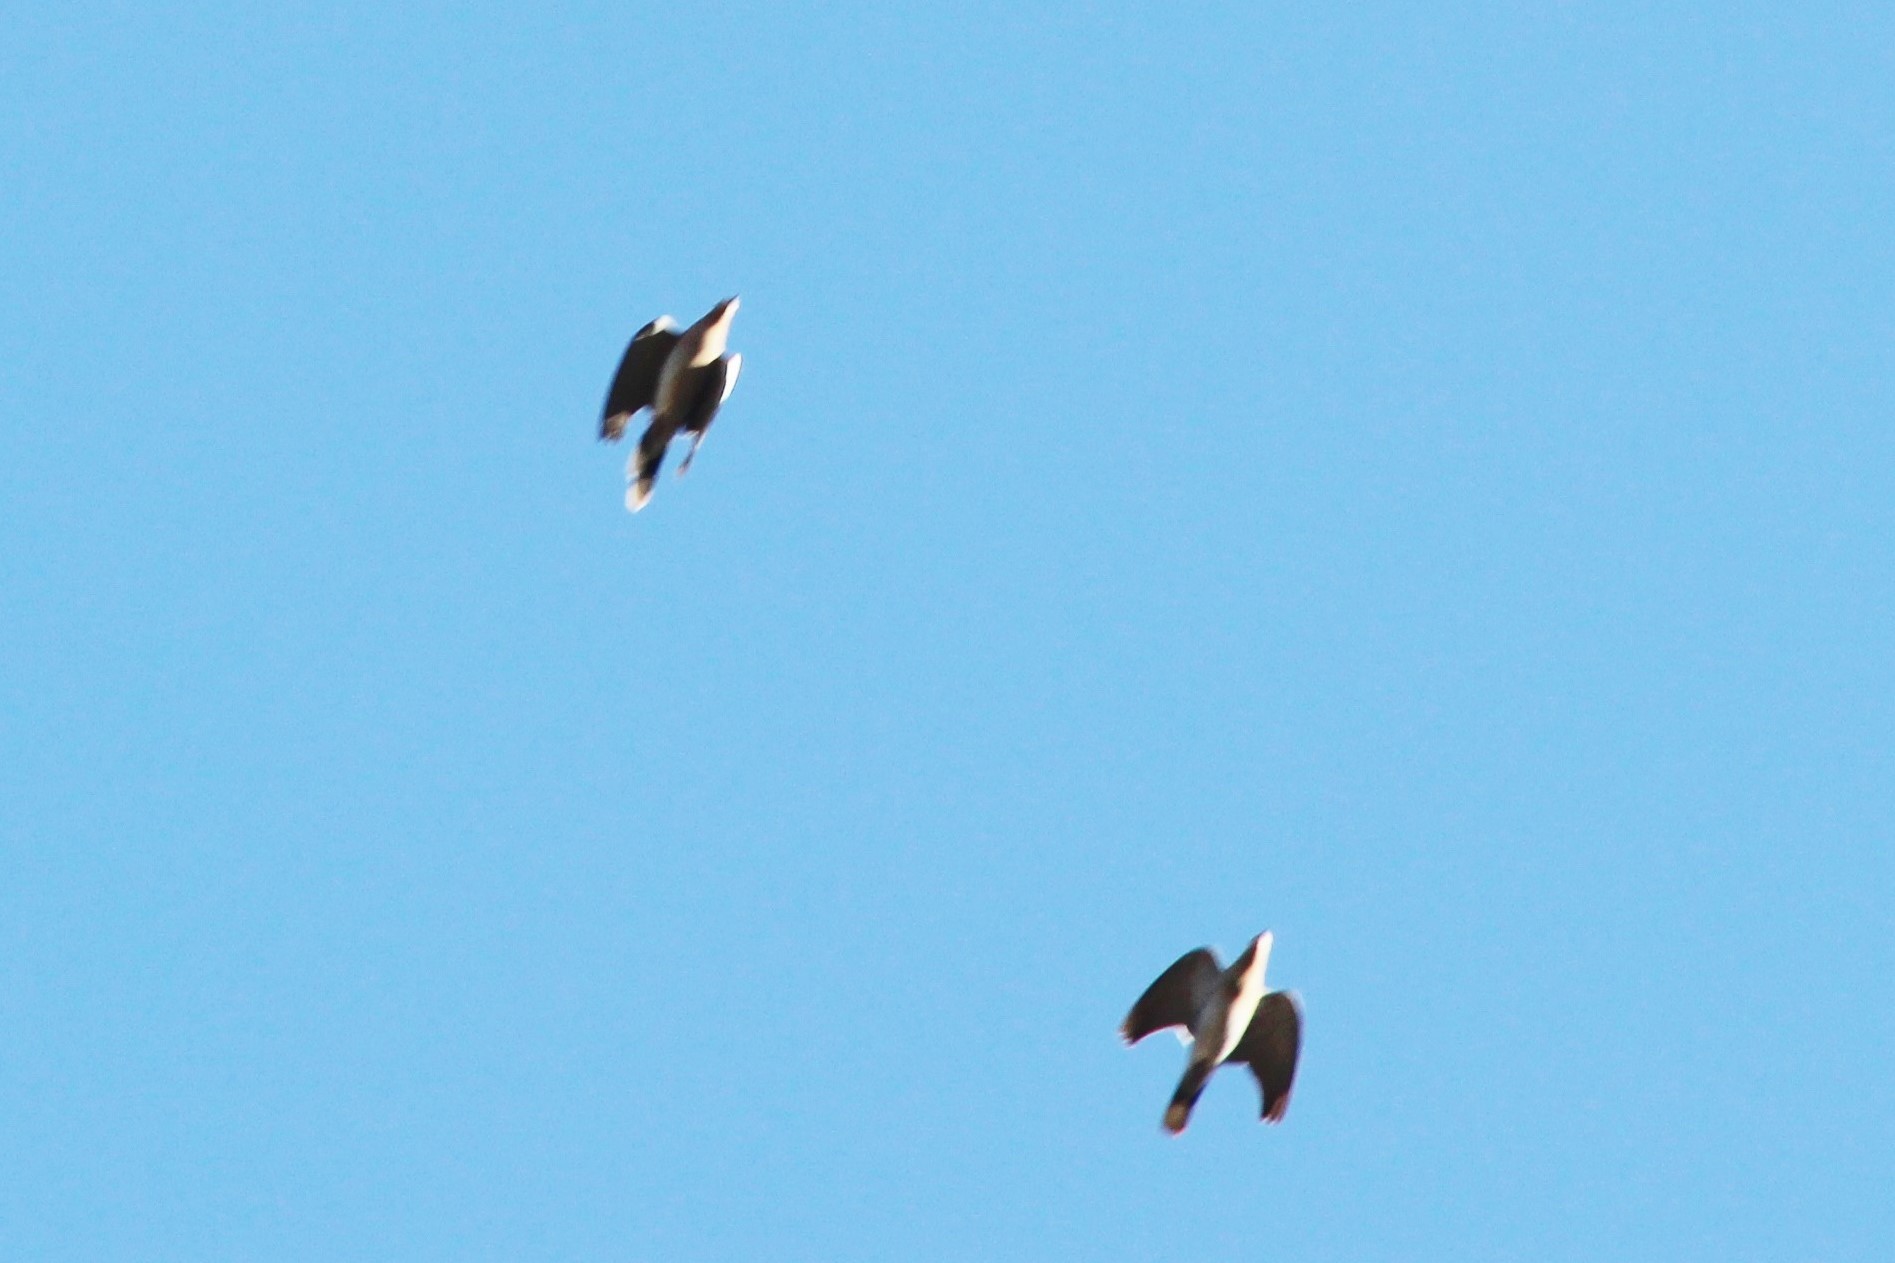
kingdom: Animalia
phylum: Chordata
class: Aves
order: Columbiformes
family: Columbidae
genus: Zenaida
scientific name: Zenaida asiatica
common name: White-winged dove
